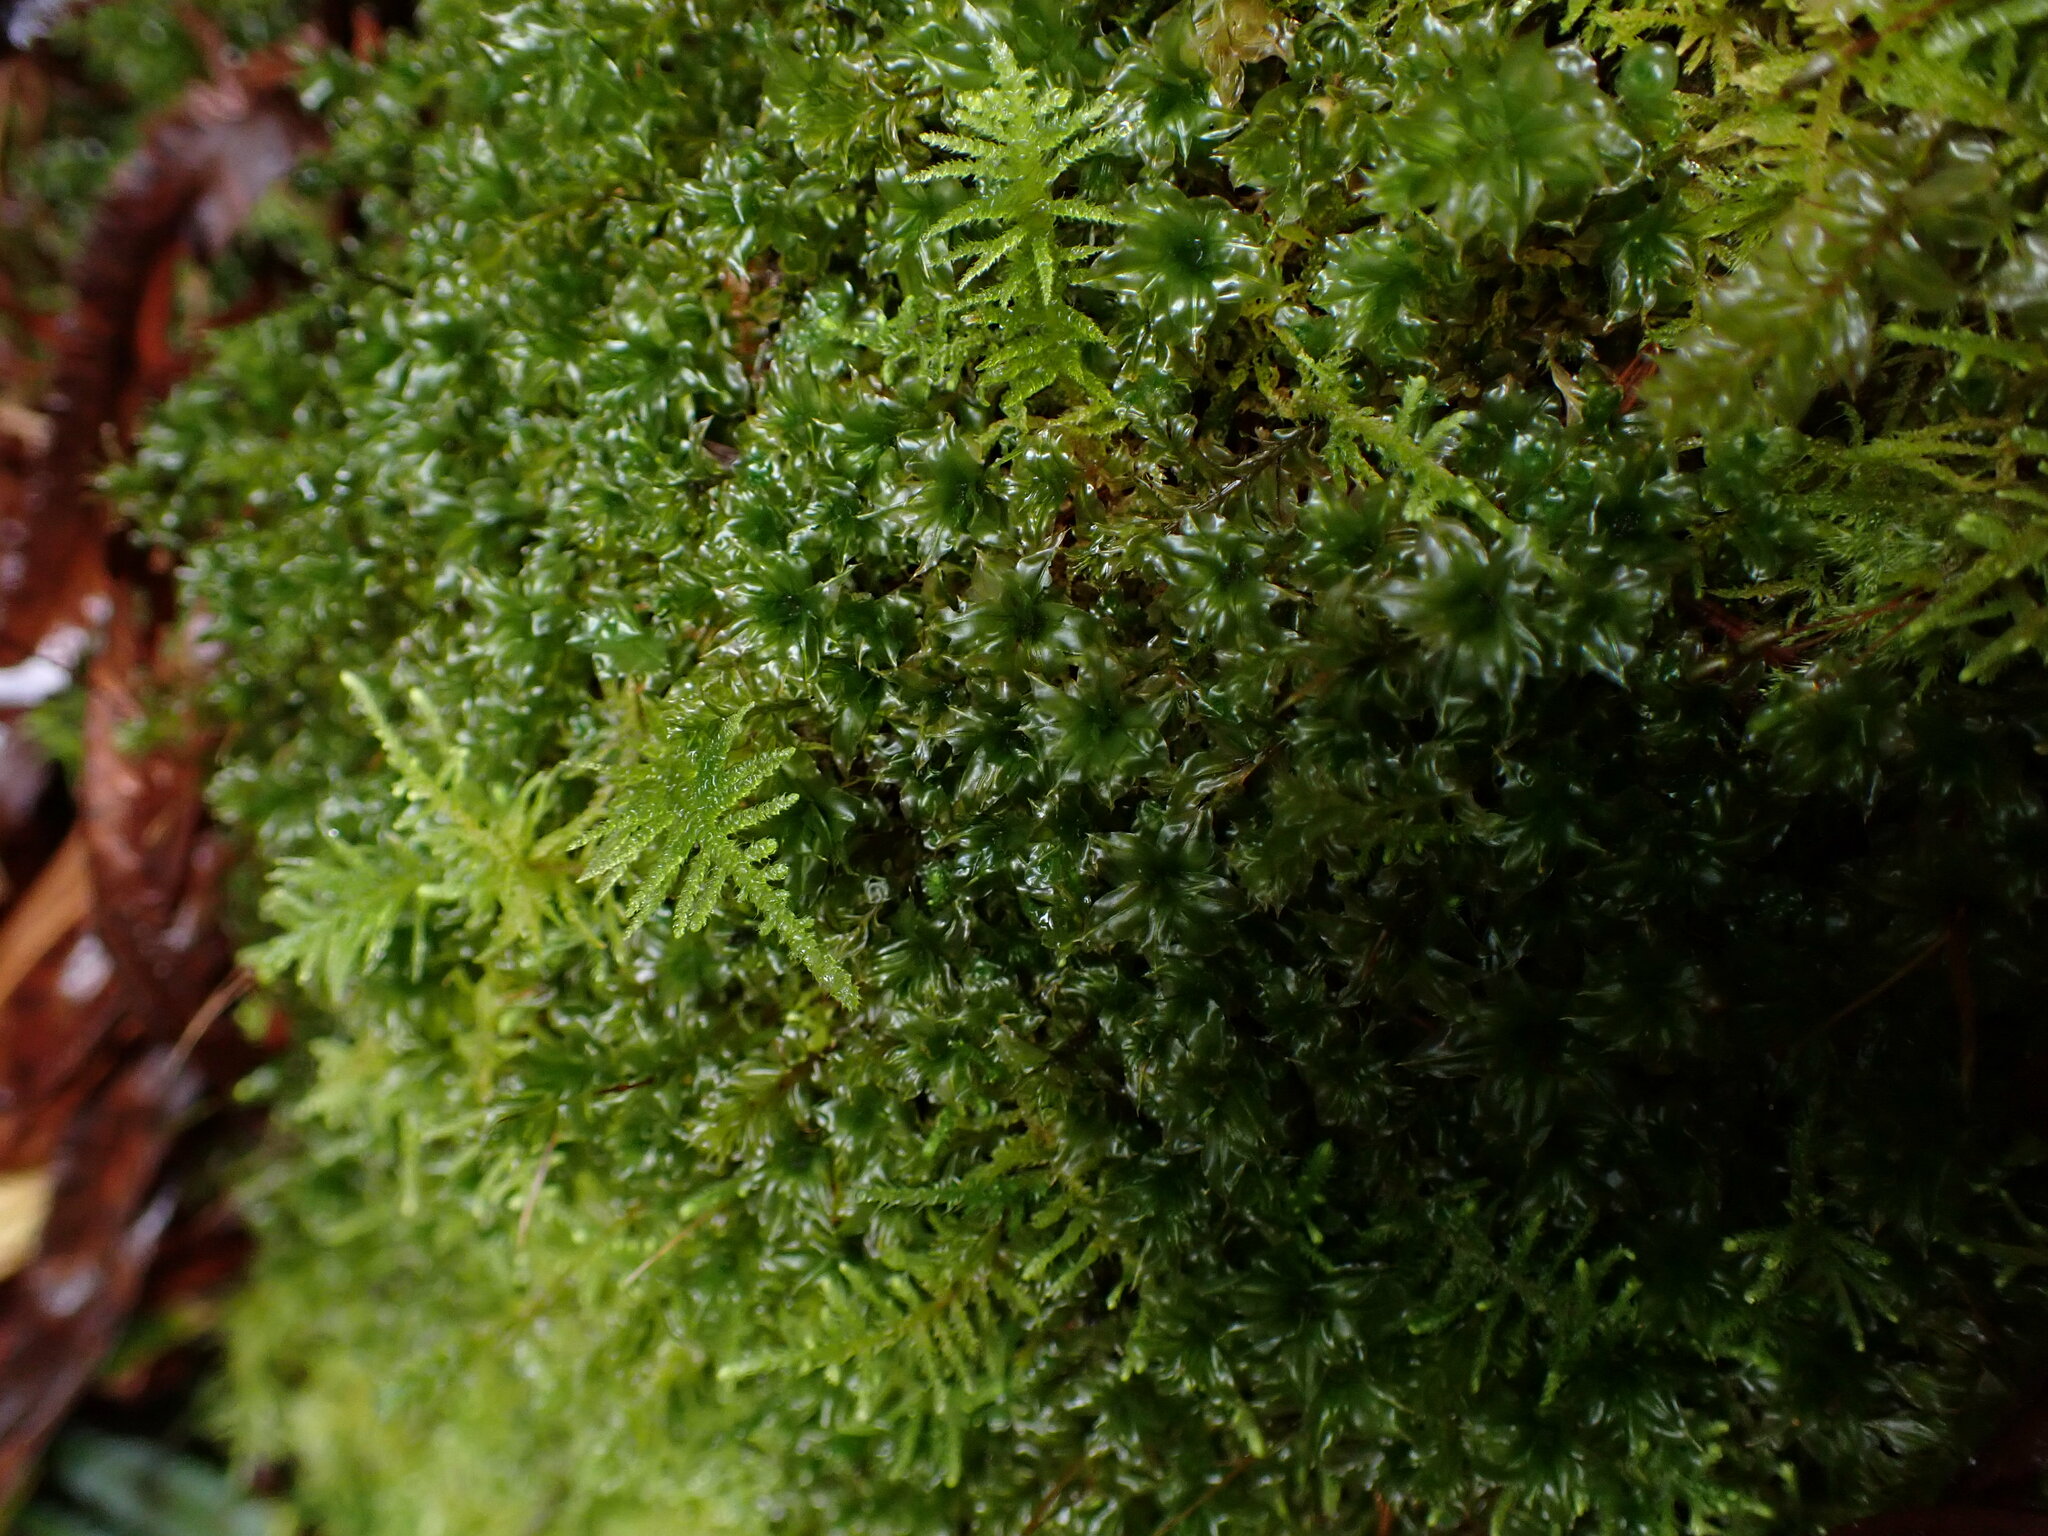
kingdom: Plantae
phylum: Bryophyta
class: Bryopsida
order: Bryales
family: Mniaceae
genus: Plagiomnium
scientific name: Plagiomnium venustum
